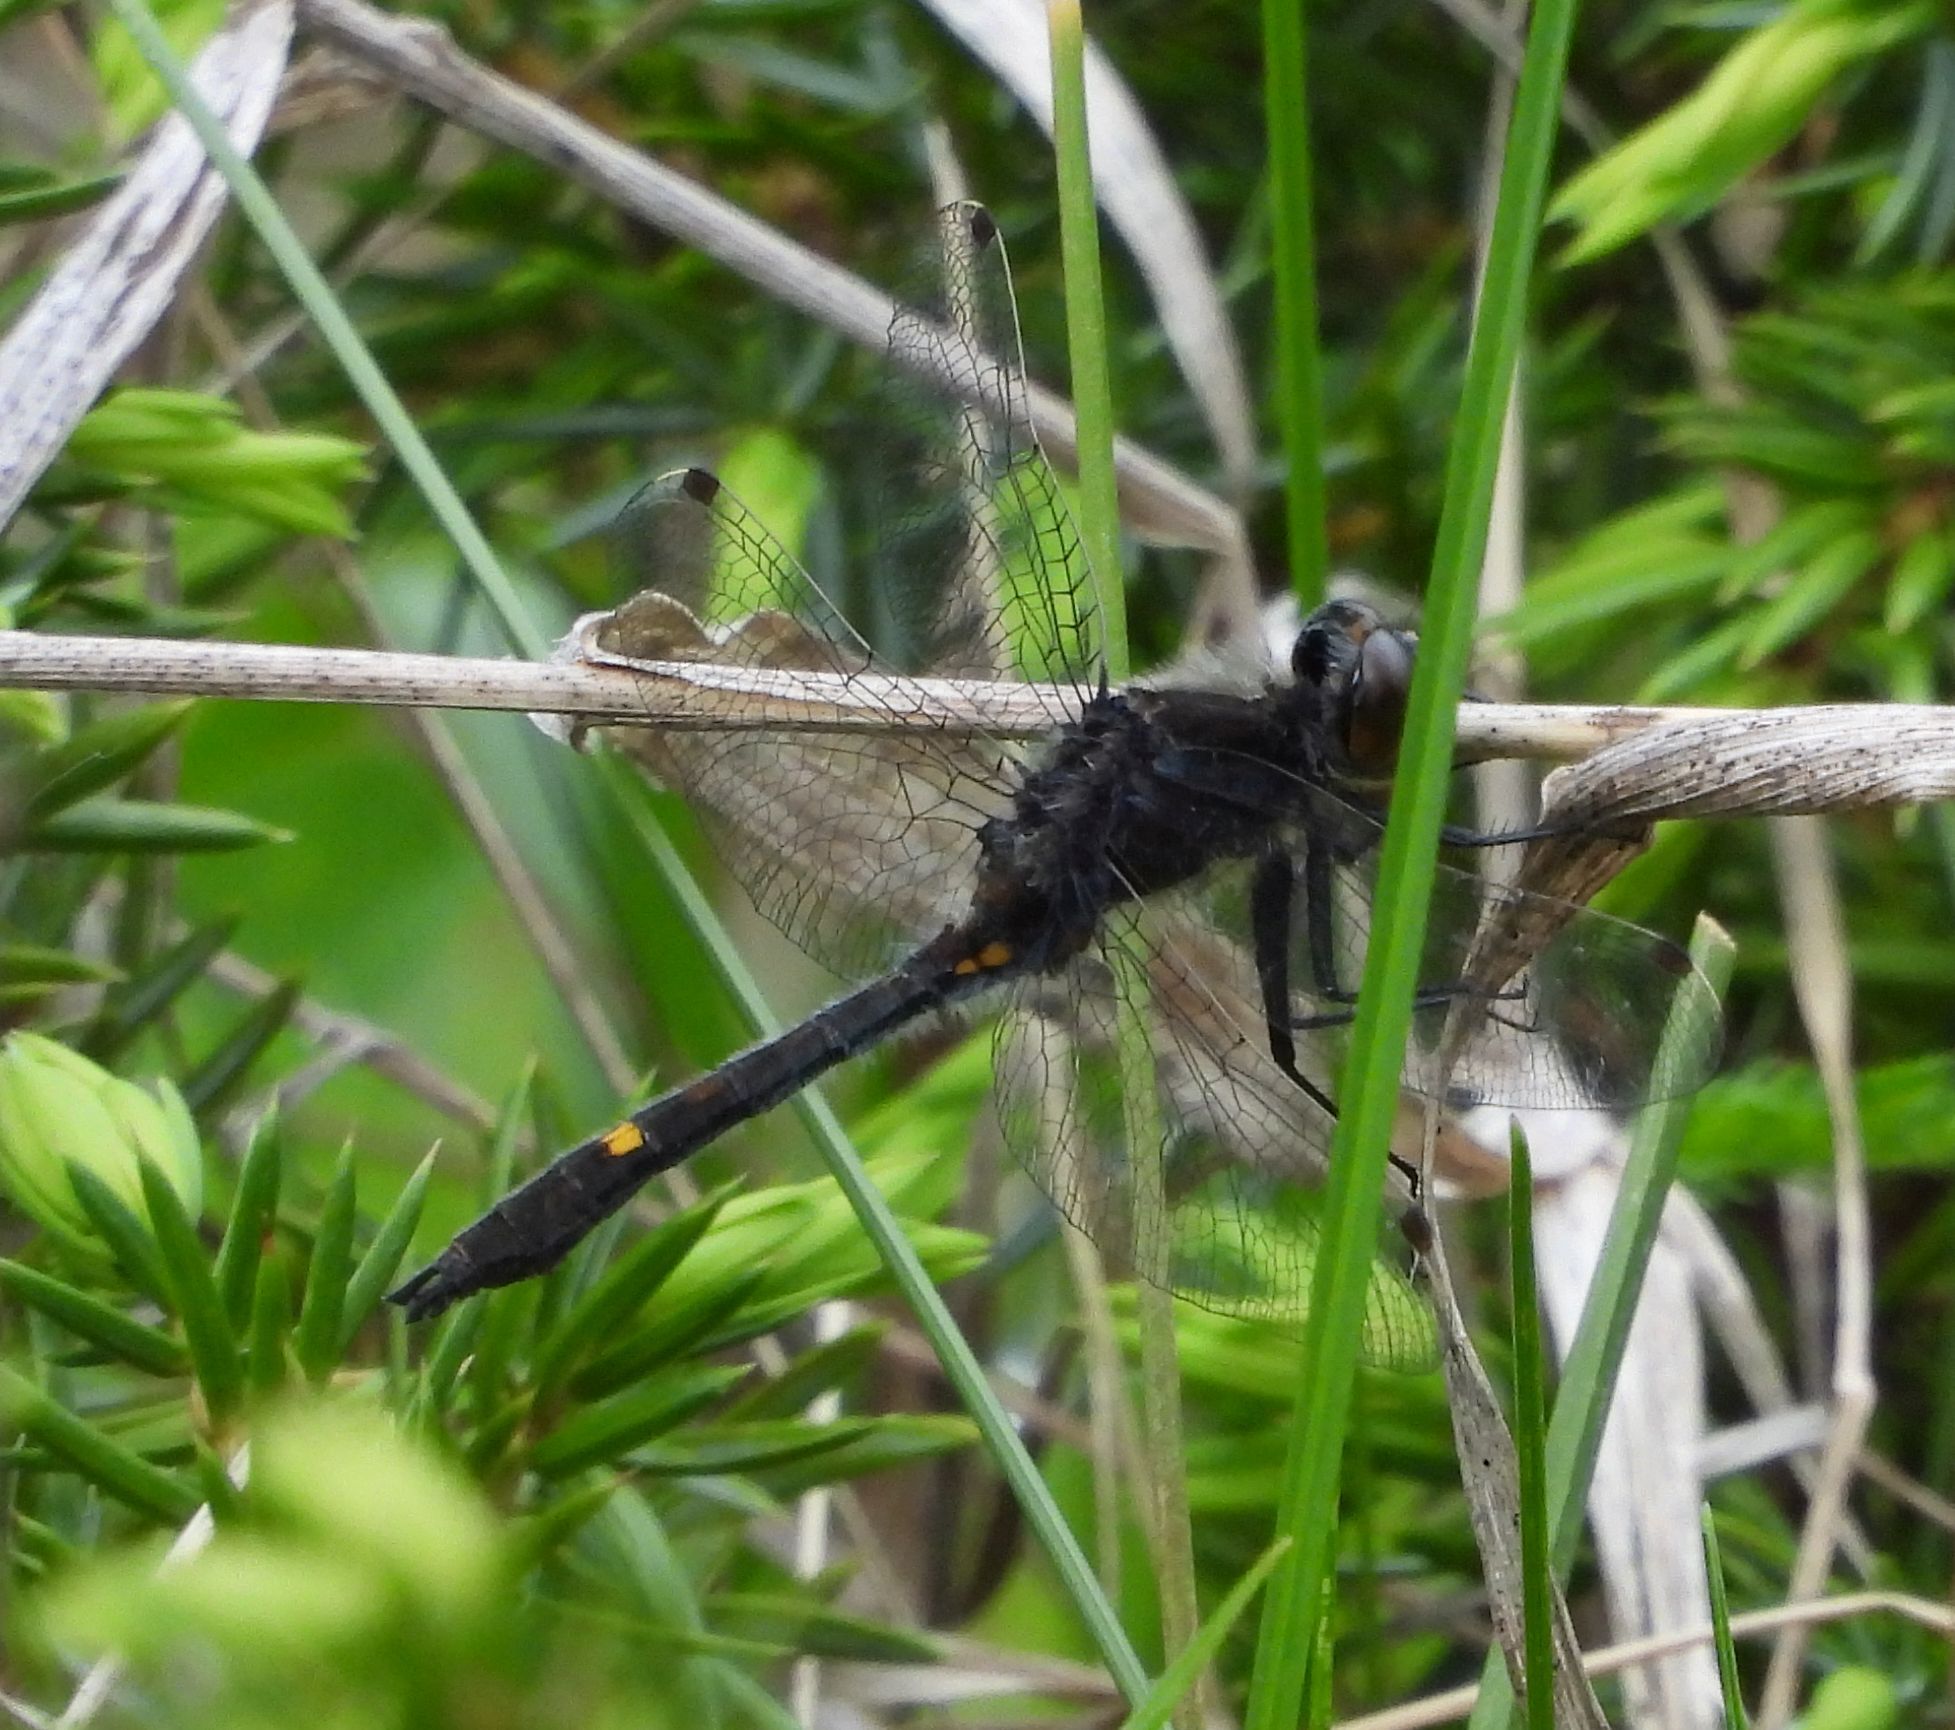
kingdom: Animalia
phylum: Arthropoda
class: Insecta
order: Odonata
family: Libellulidae
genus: Leucorrhinia
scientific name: Leucorrhinia intacta
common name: Dot-tailed whiteface
